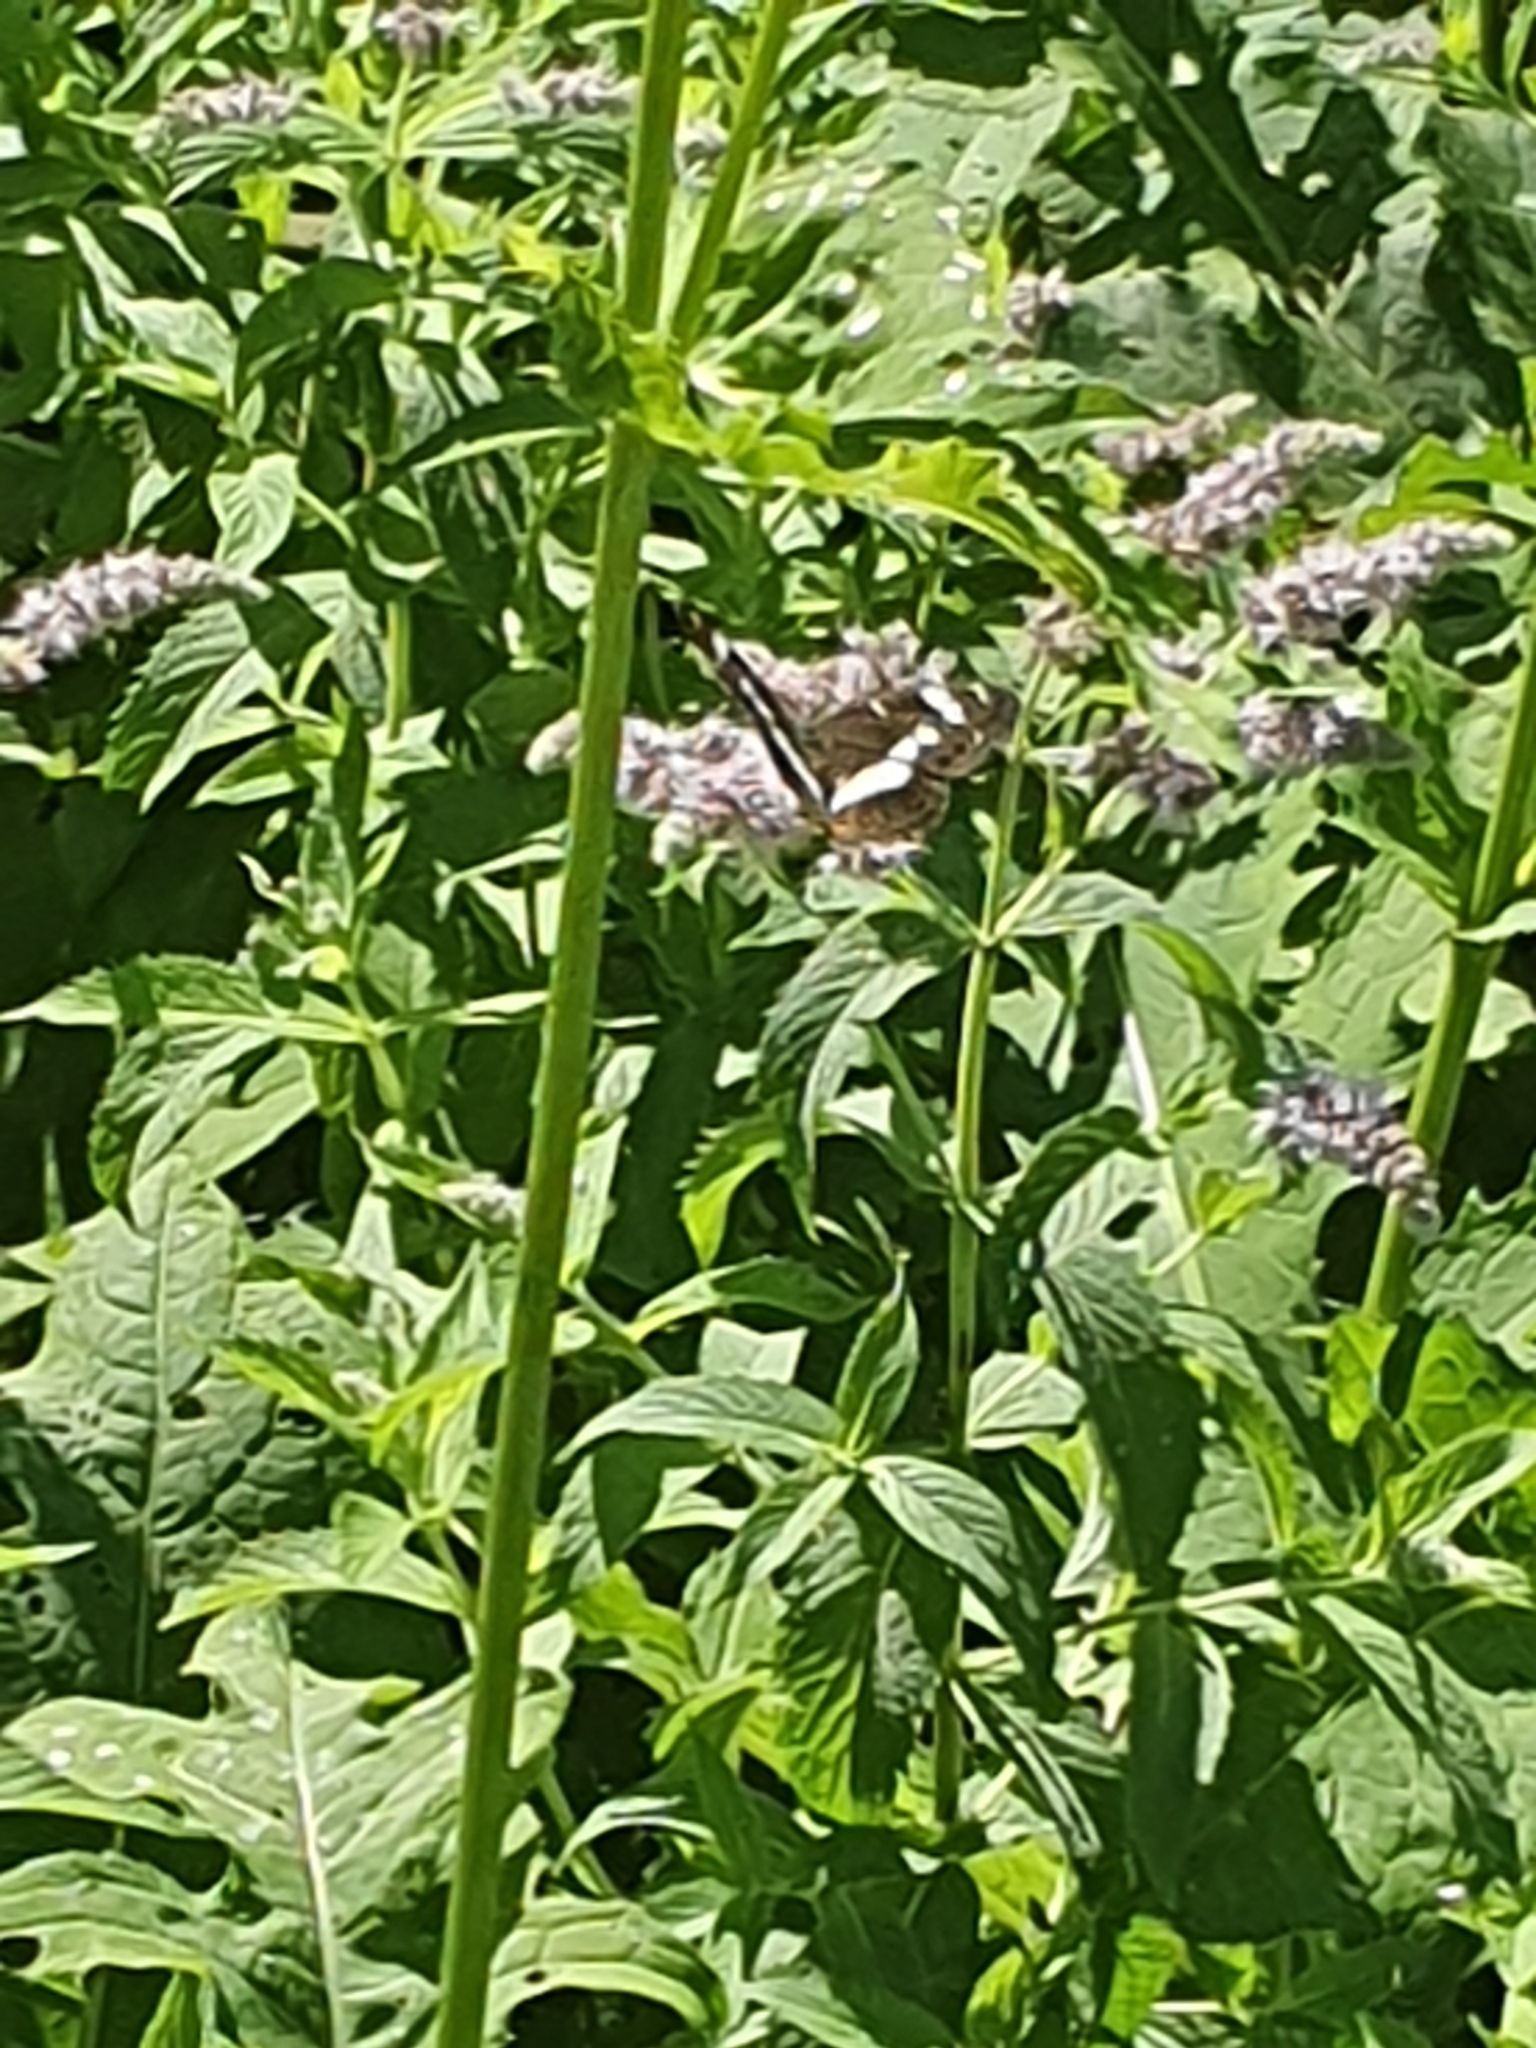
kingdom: Animalia
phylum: Arthropoda
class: Insecta
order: Lepidoptera
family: Nymphalidae
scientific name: Nymphalidae
